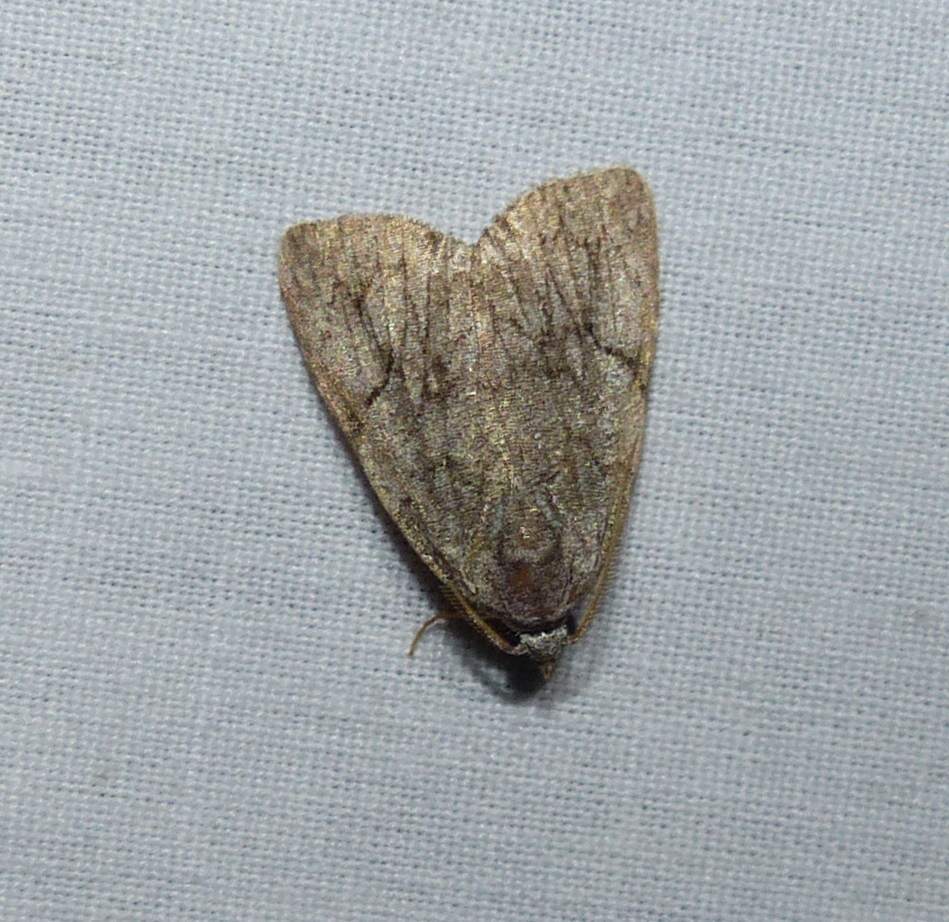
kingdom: Animalia
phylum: Arthropoda
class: Insecta
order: Lepidoptera
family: Noctuidae
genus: Balsa
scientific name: Balsa malana
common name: Many-dotted appleworm moth
